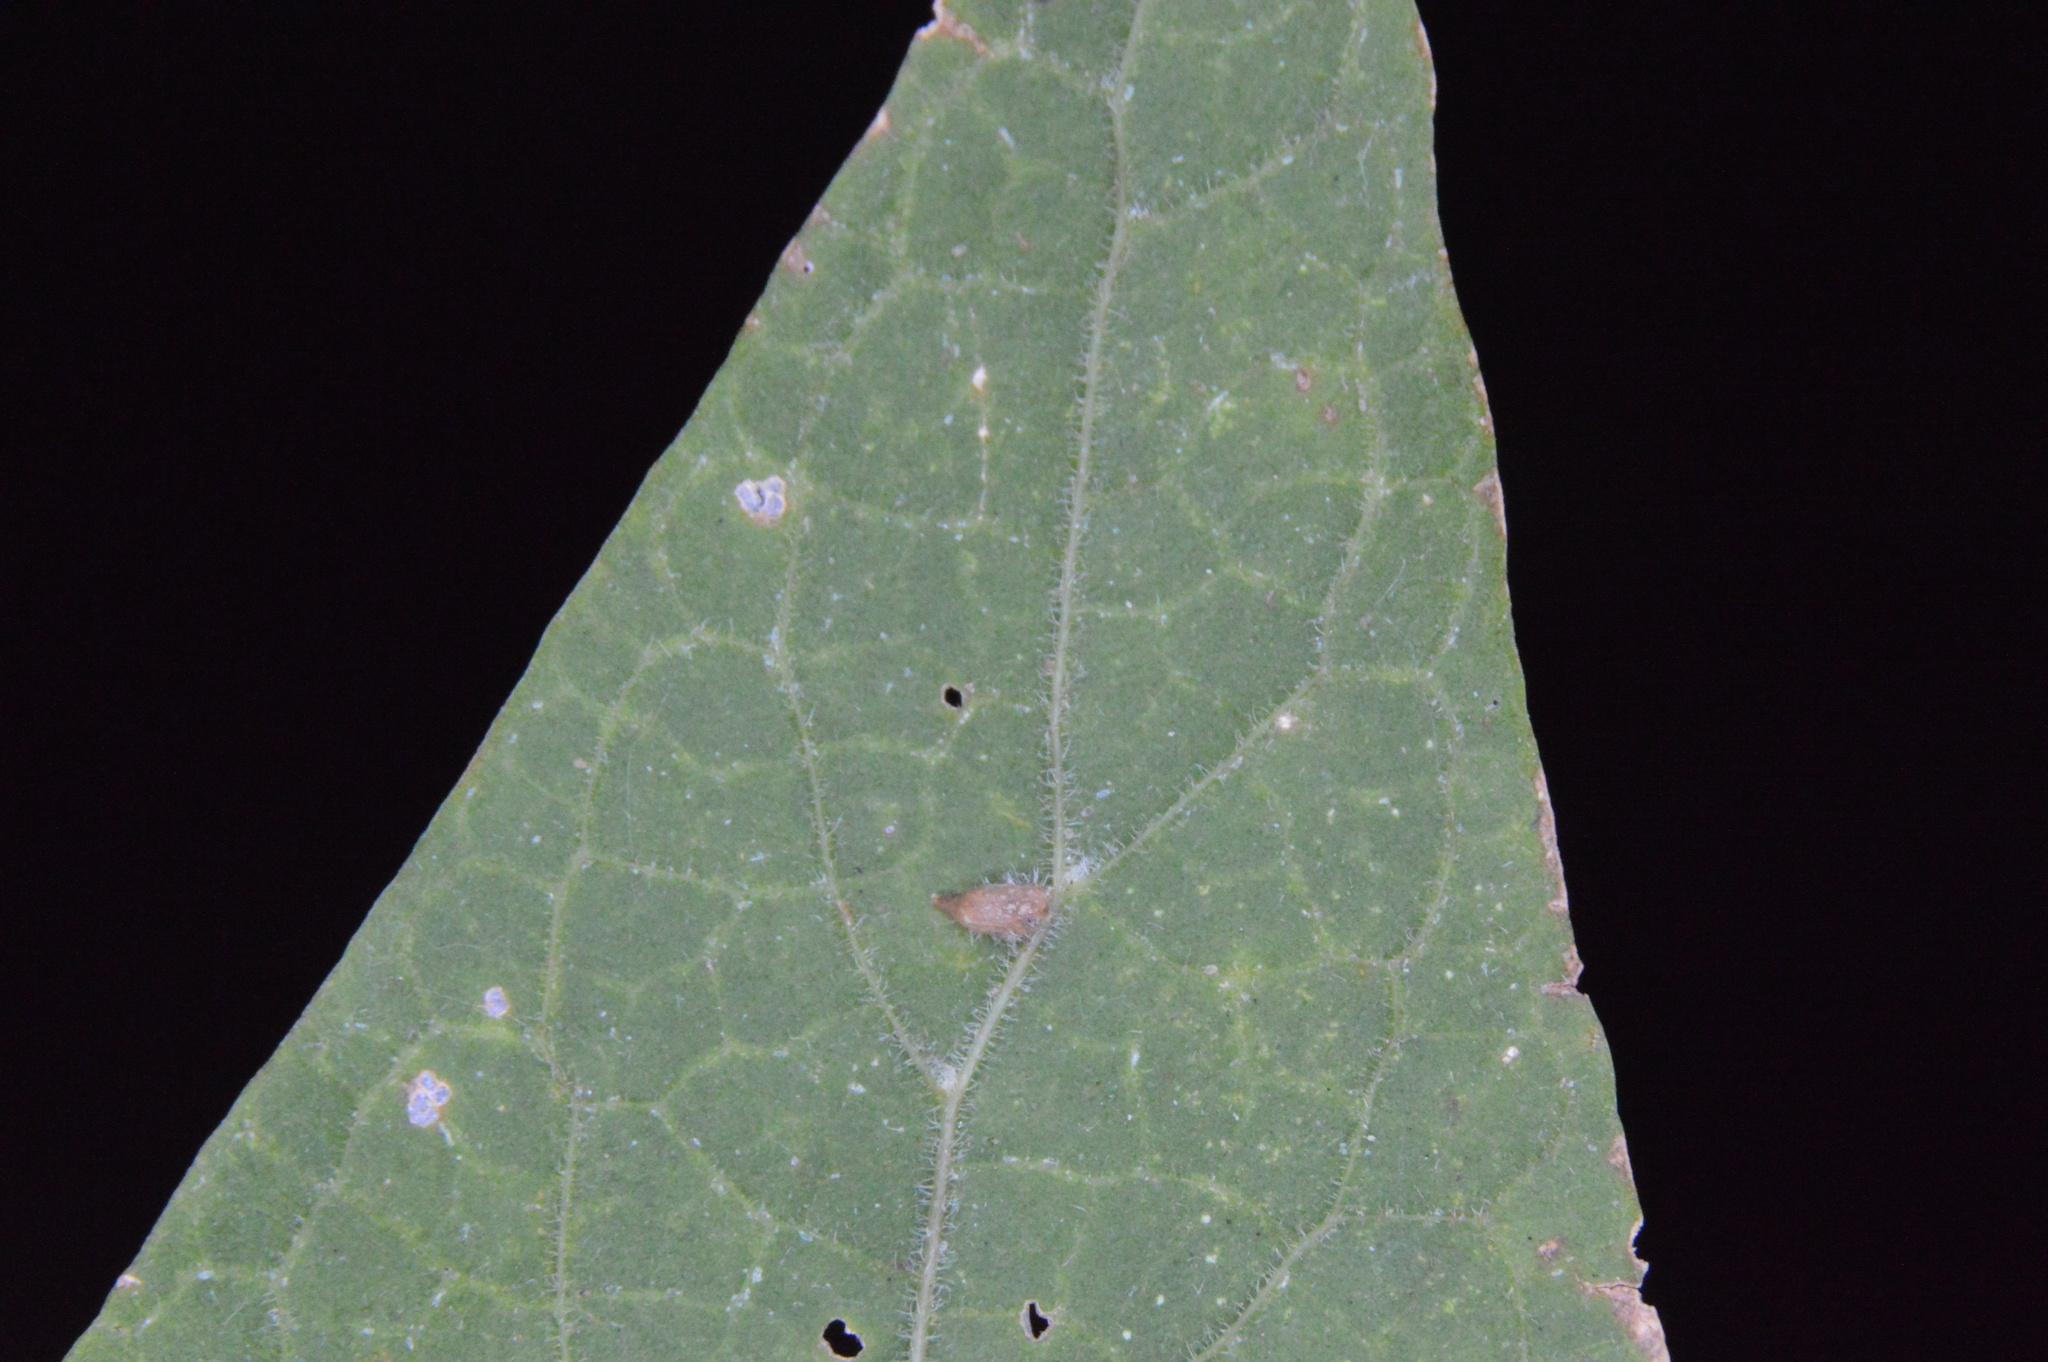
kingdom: Animalia
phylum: Arthropoda
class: Insecta
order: Diptera
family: Cecidomyiidae
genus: Celticecis
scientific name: Celticecis supina
